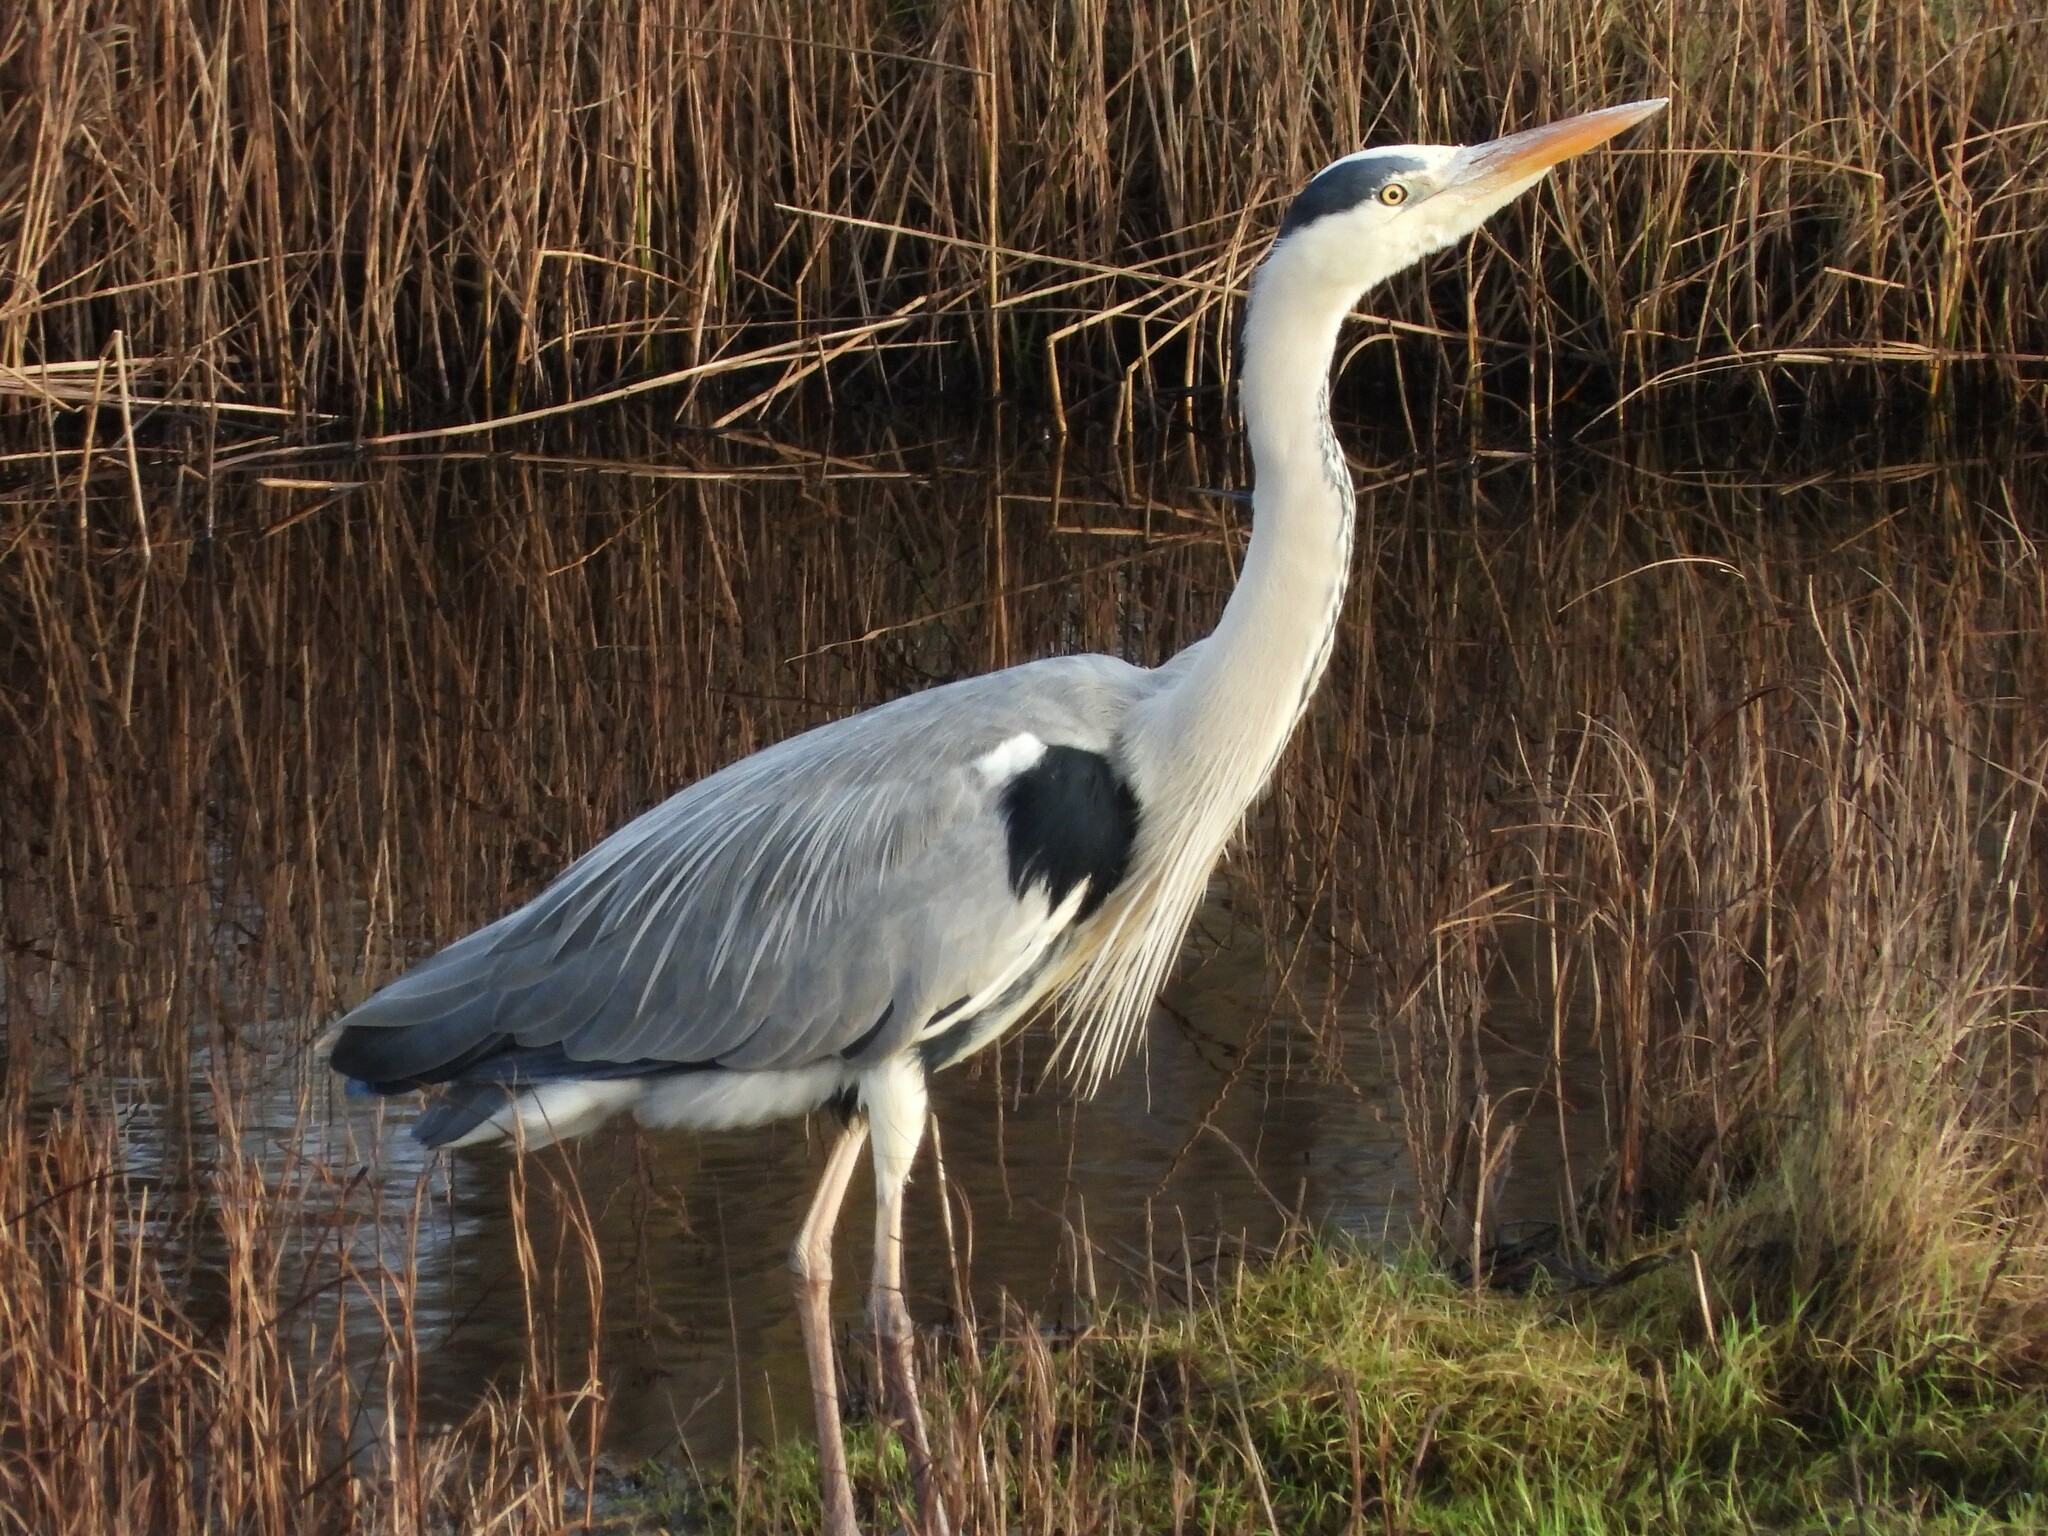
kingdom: Animalia
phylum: Chordata
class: Aves
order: Pelecaniformes
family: Ardeidae
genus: Ardea
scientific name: Ardea cinerea
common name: Grey heron
